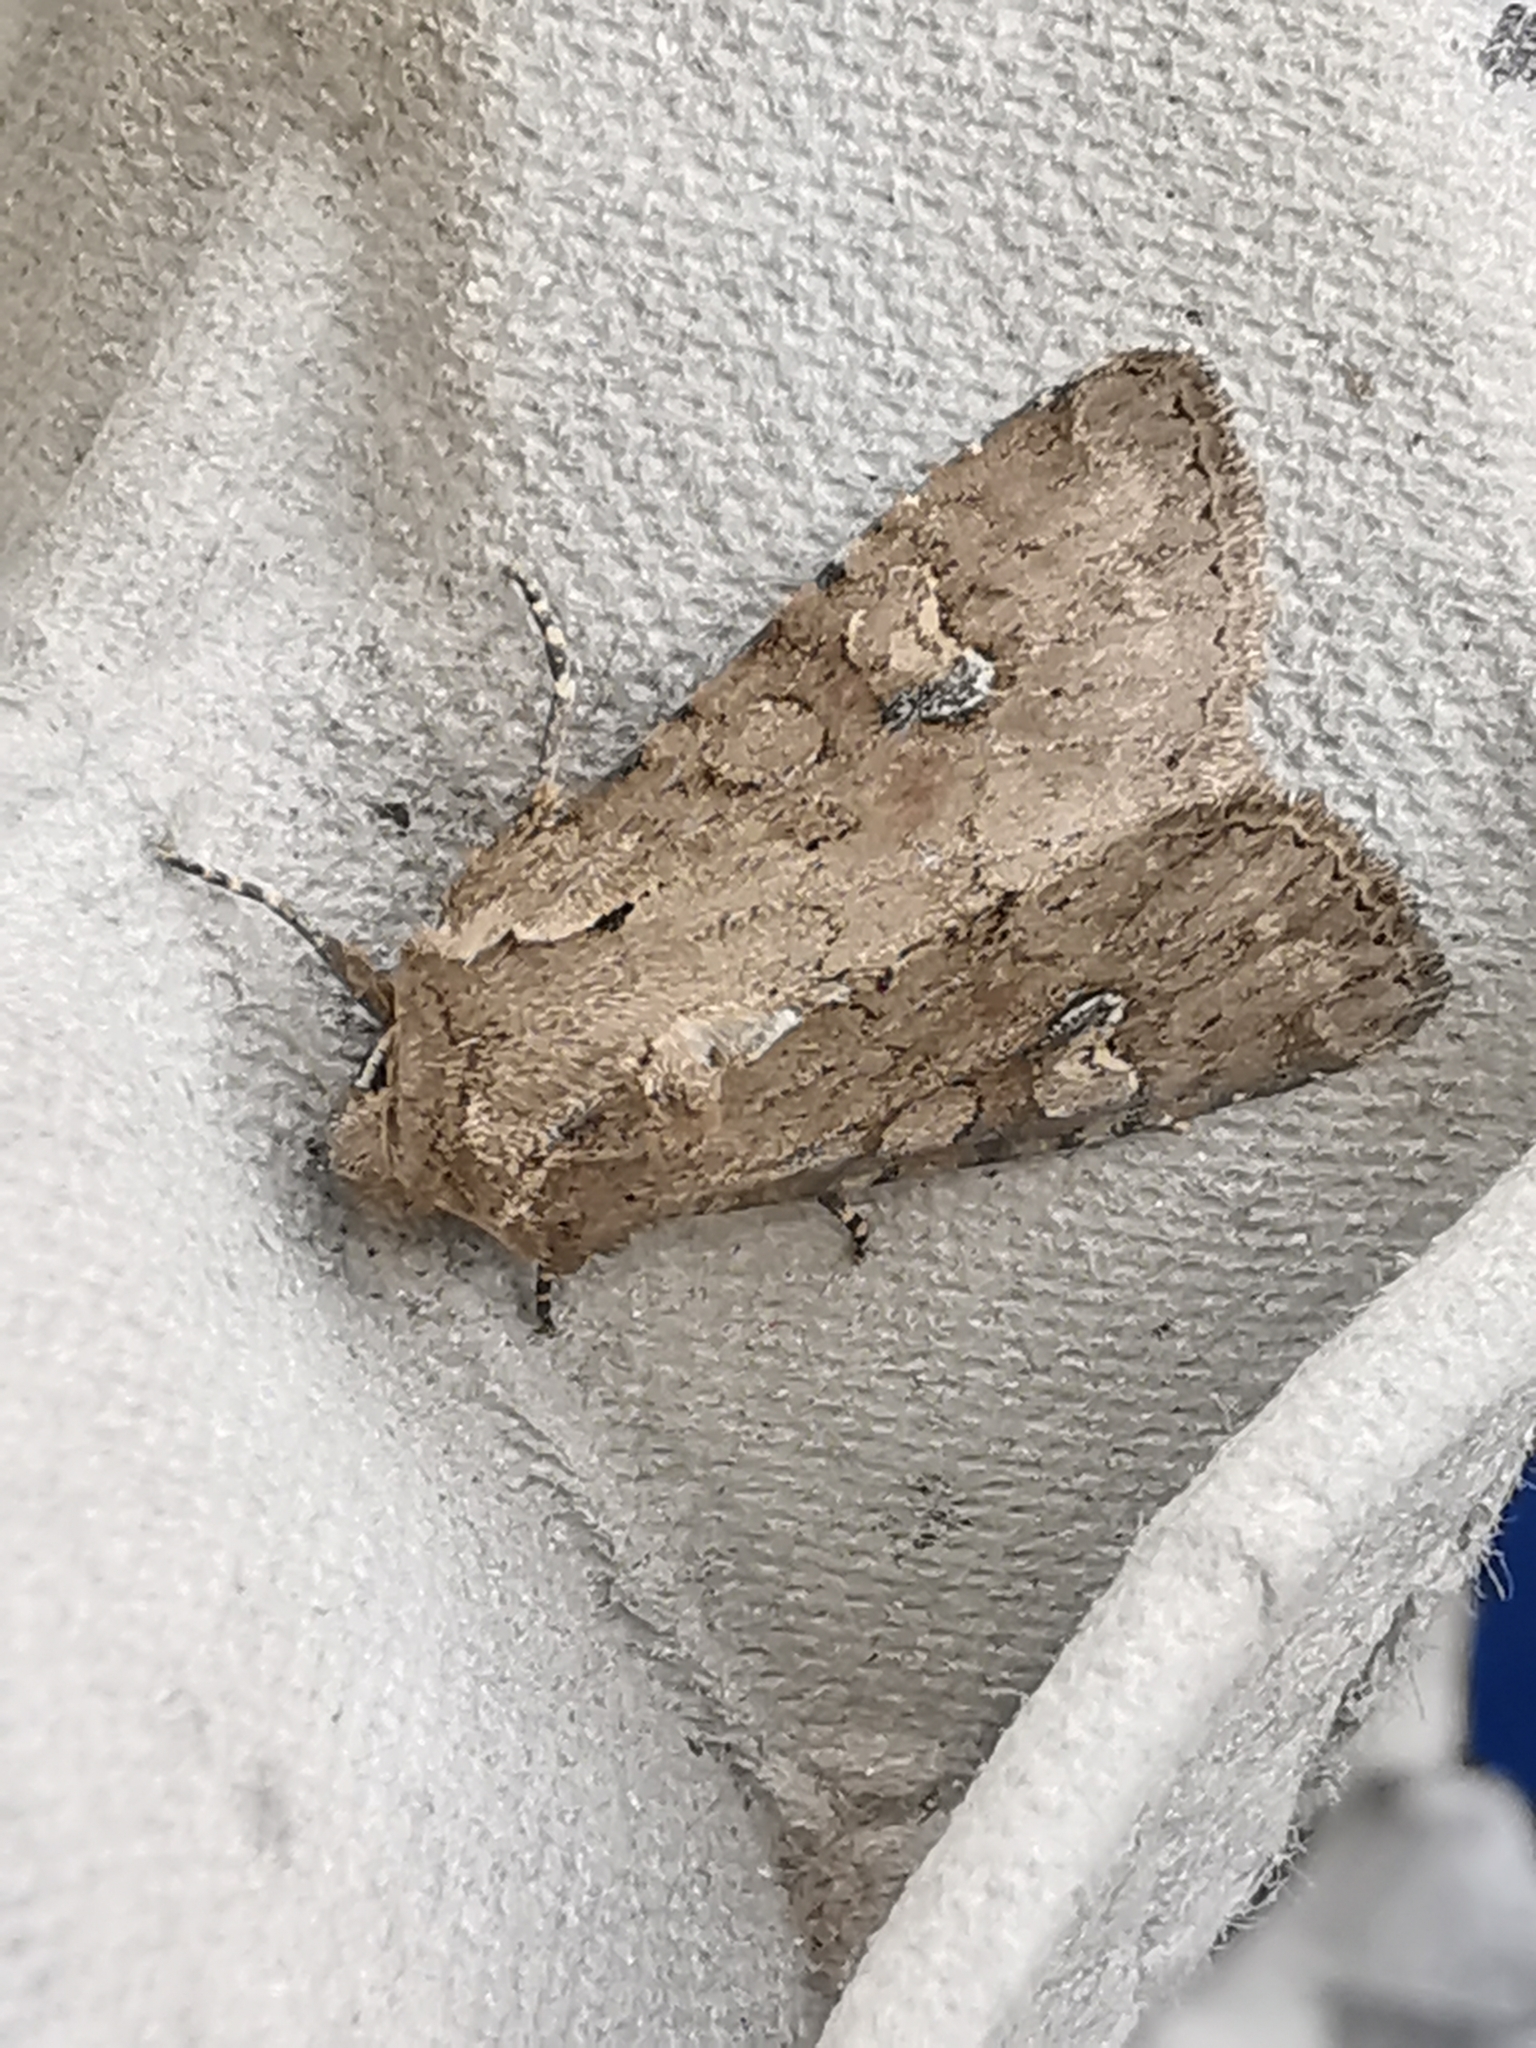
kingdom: Animalia
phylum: Arthropoda
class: Insecta
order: Lepidoptera
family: Noctuidae
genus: Apamea
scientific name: Apamea sordens
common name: Rustic shoulder-knot
